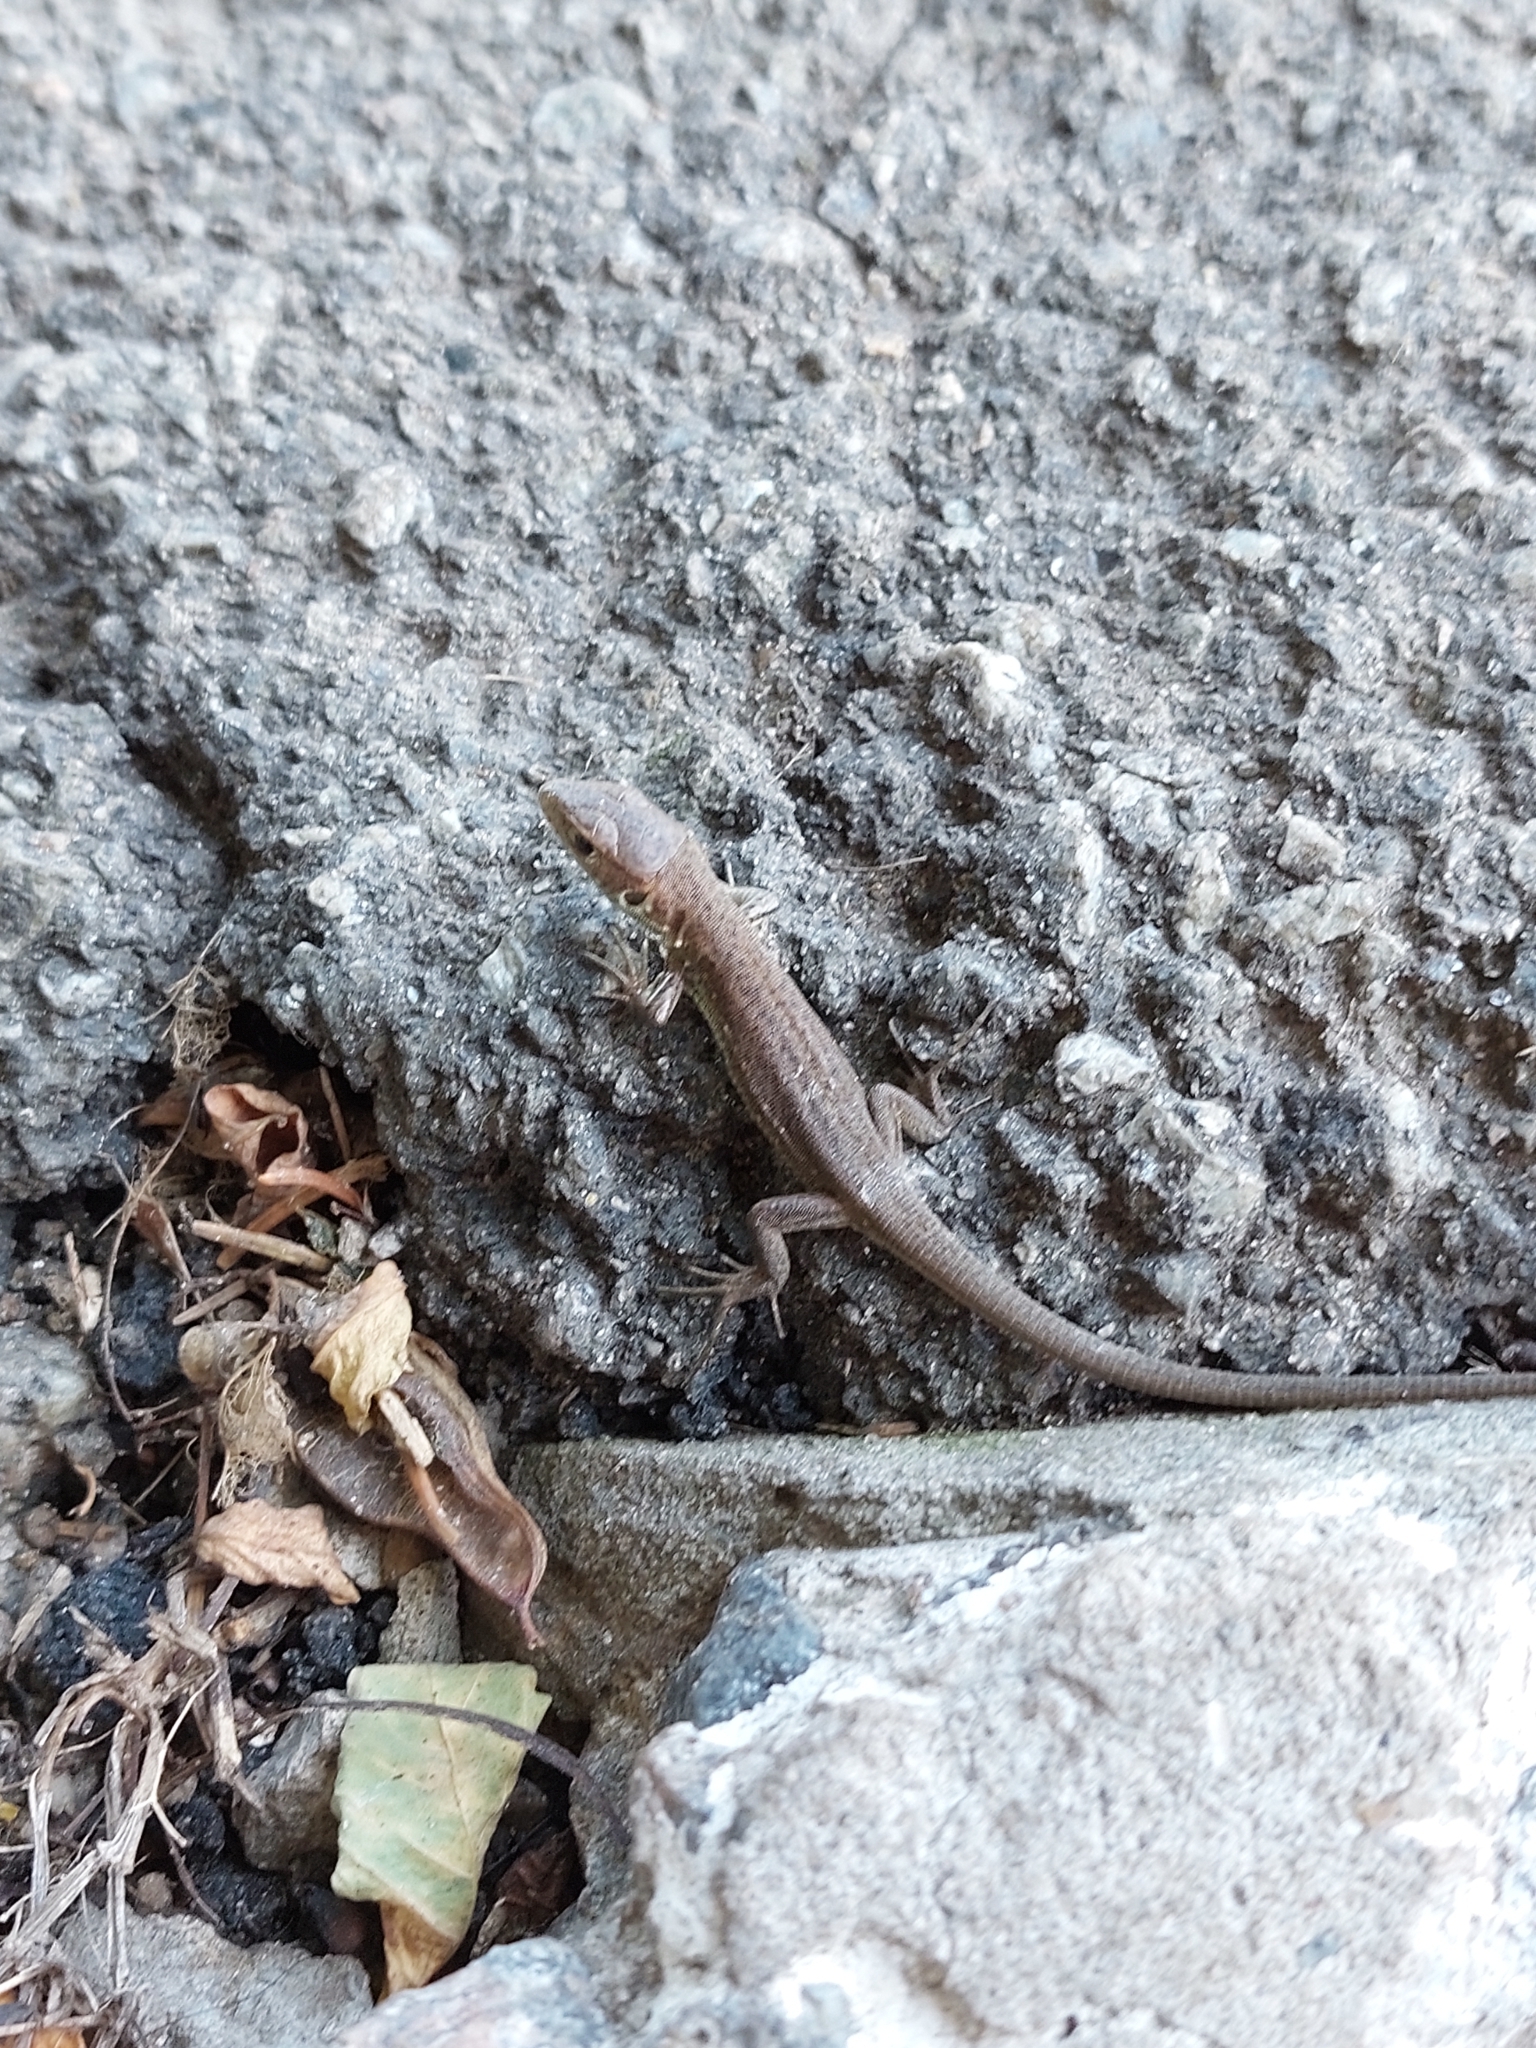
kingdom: Animalia
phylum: Chordata
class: Squamata
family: Lacertidae
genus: Lacerta
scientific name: Lacerta viridis
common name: European green lizard
